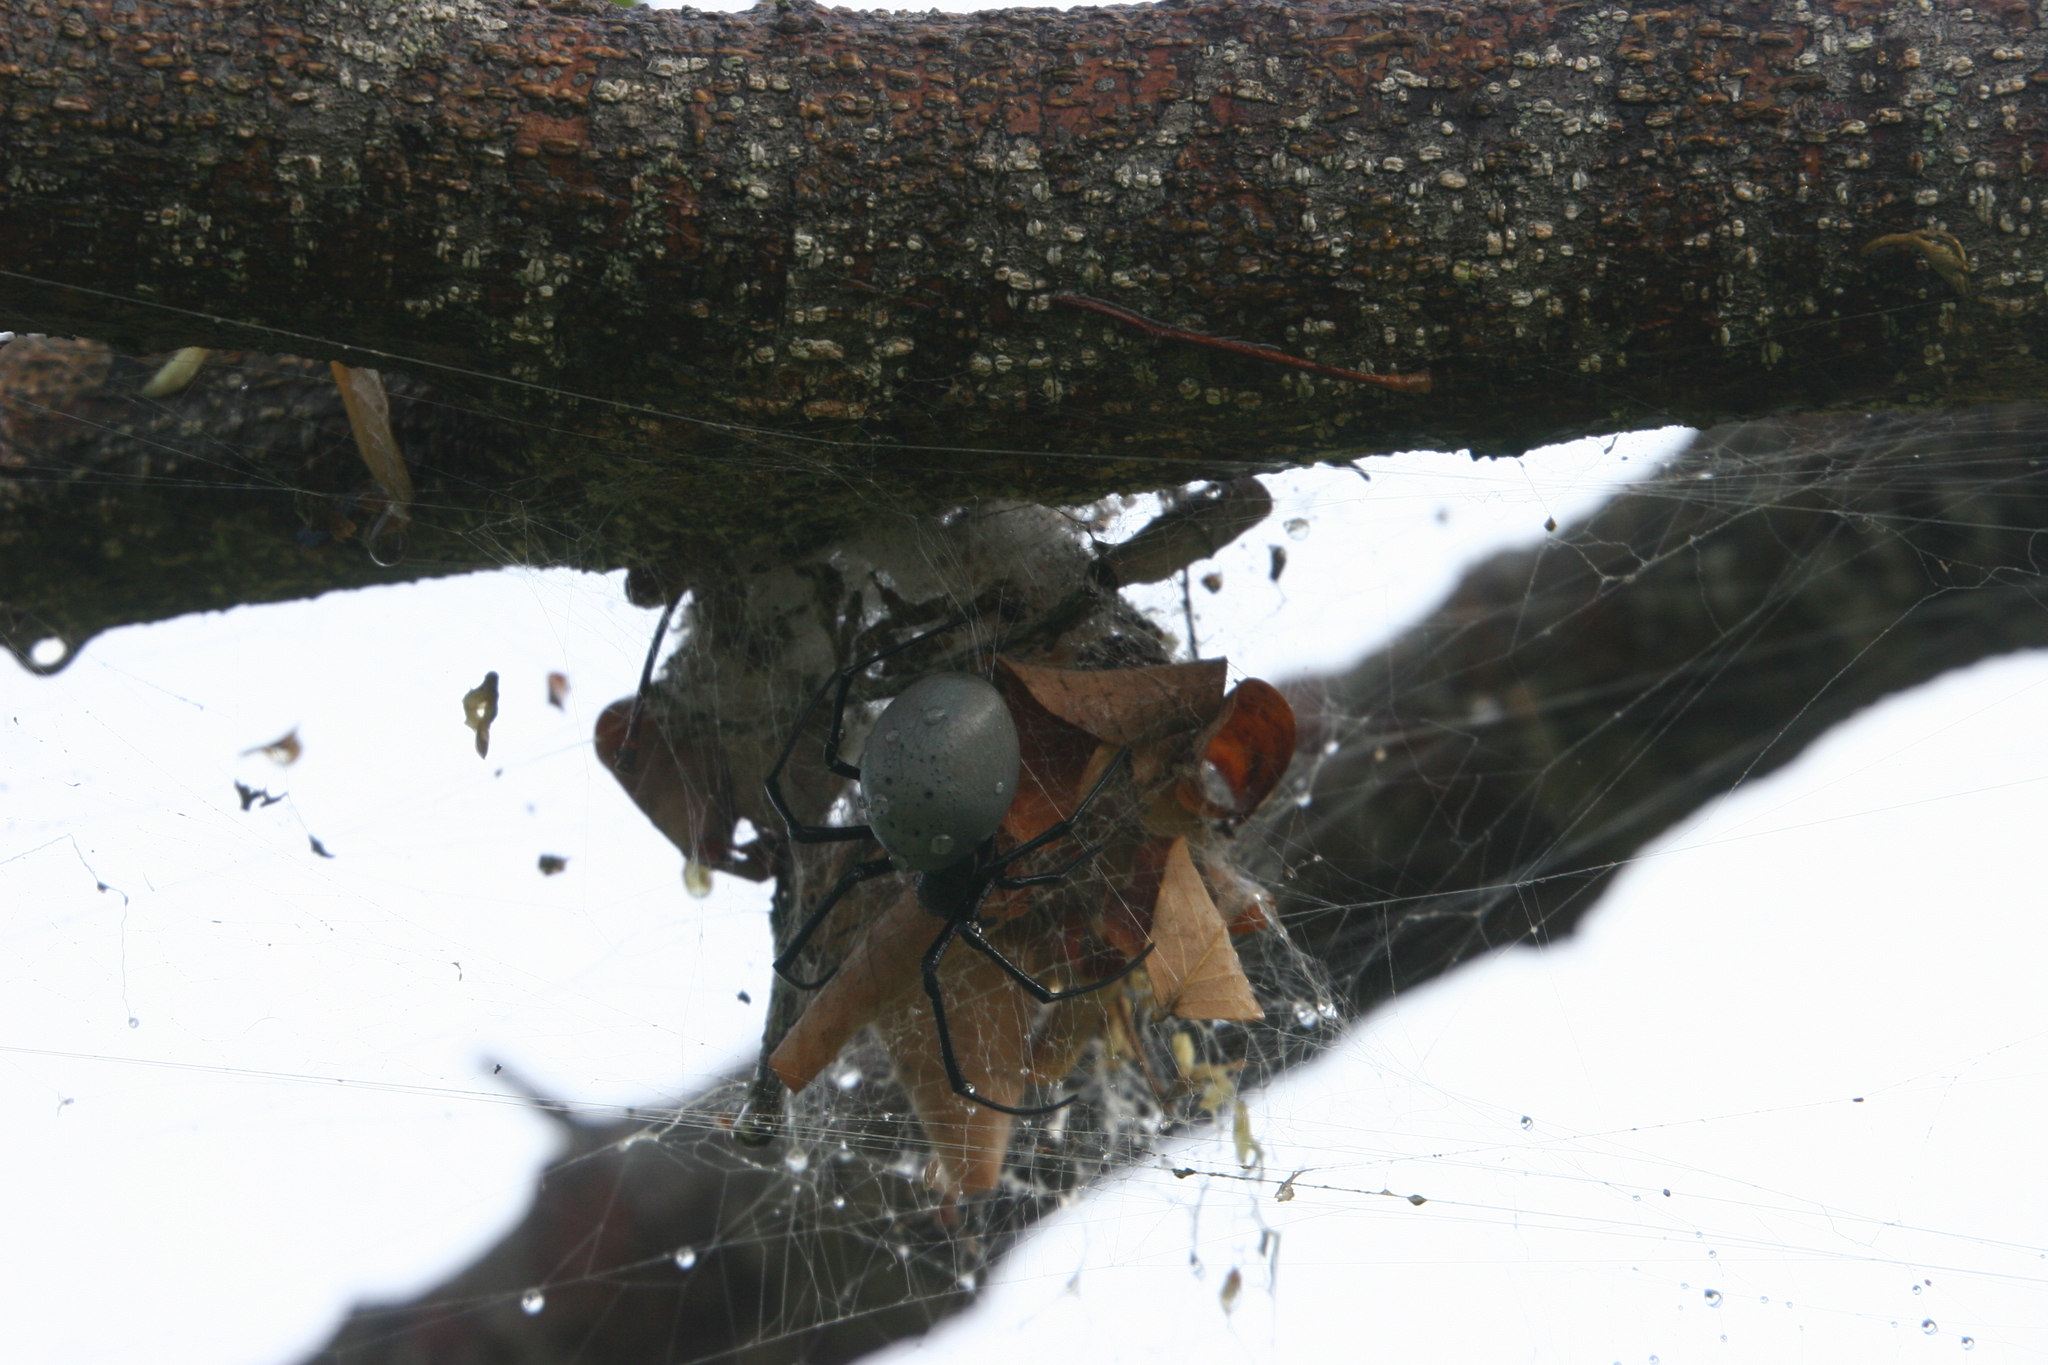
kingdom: Animalia
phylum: Arthropoda
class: Arachnida
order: Araneae
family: Araneidae
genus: Nephilingis
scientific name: Nephilingis livida
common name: Madagascar hermit spider
